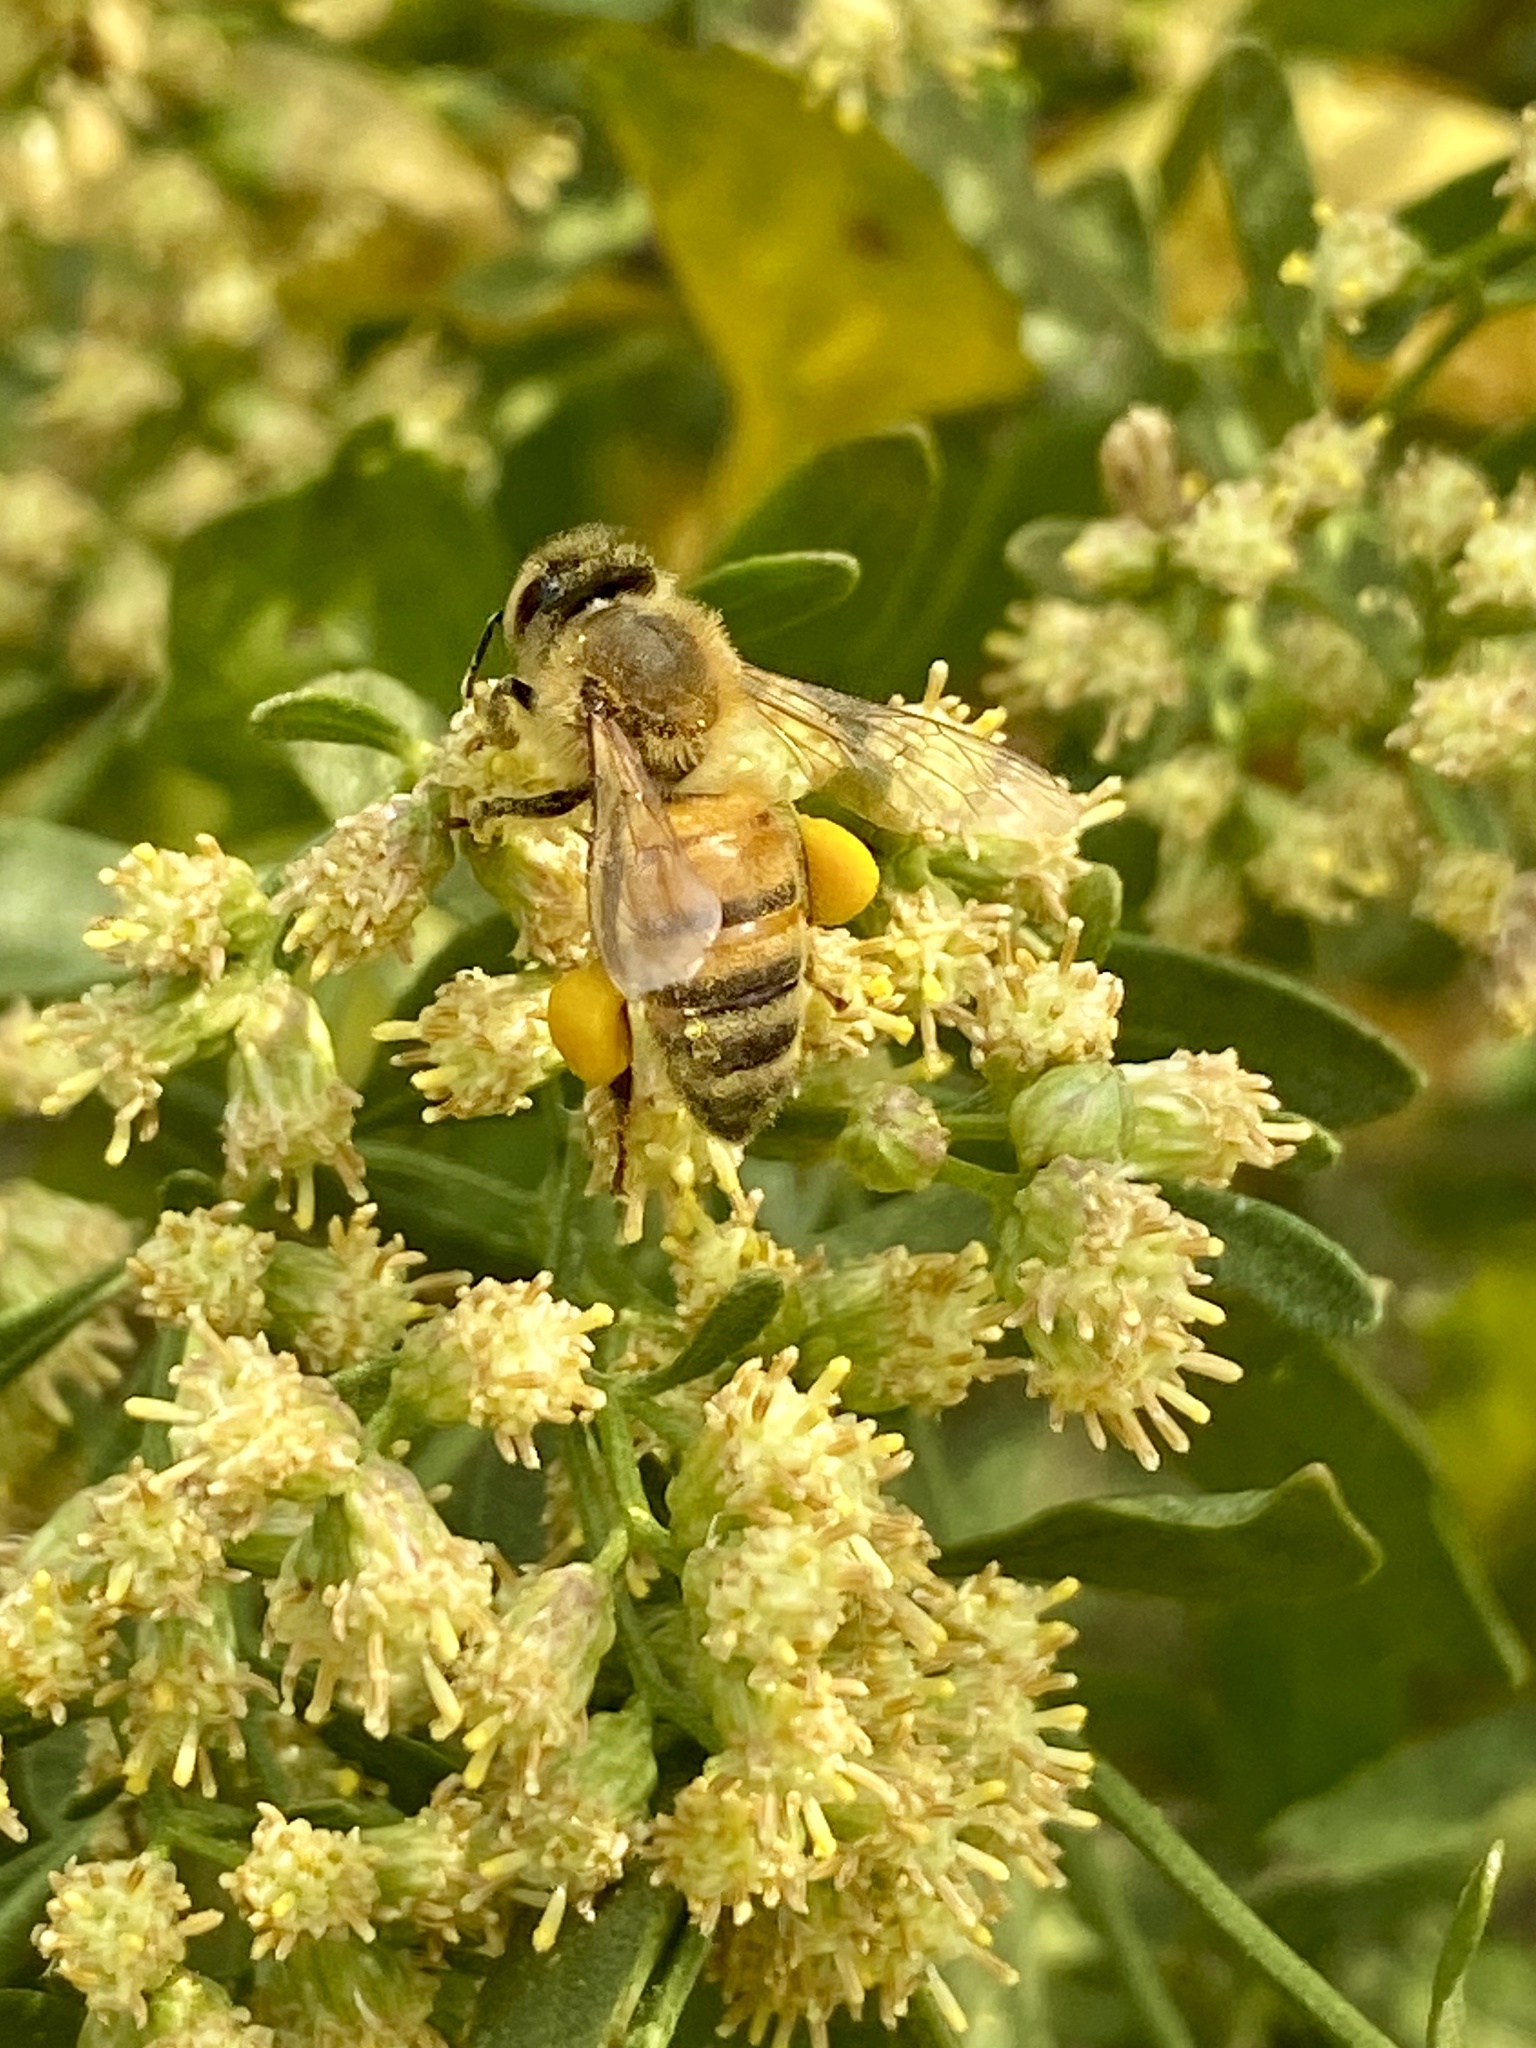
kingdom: Animalia
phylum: Arthropoda
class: Insecta
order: Hymenoptera
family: Apidae
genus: Apis
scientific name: Apis mellifera
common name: Honey bee
